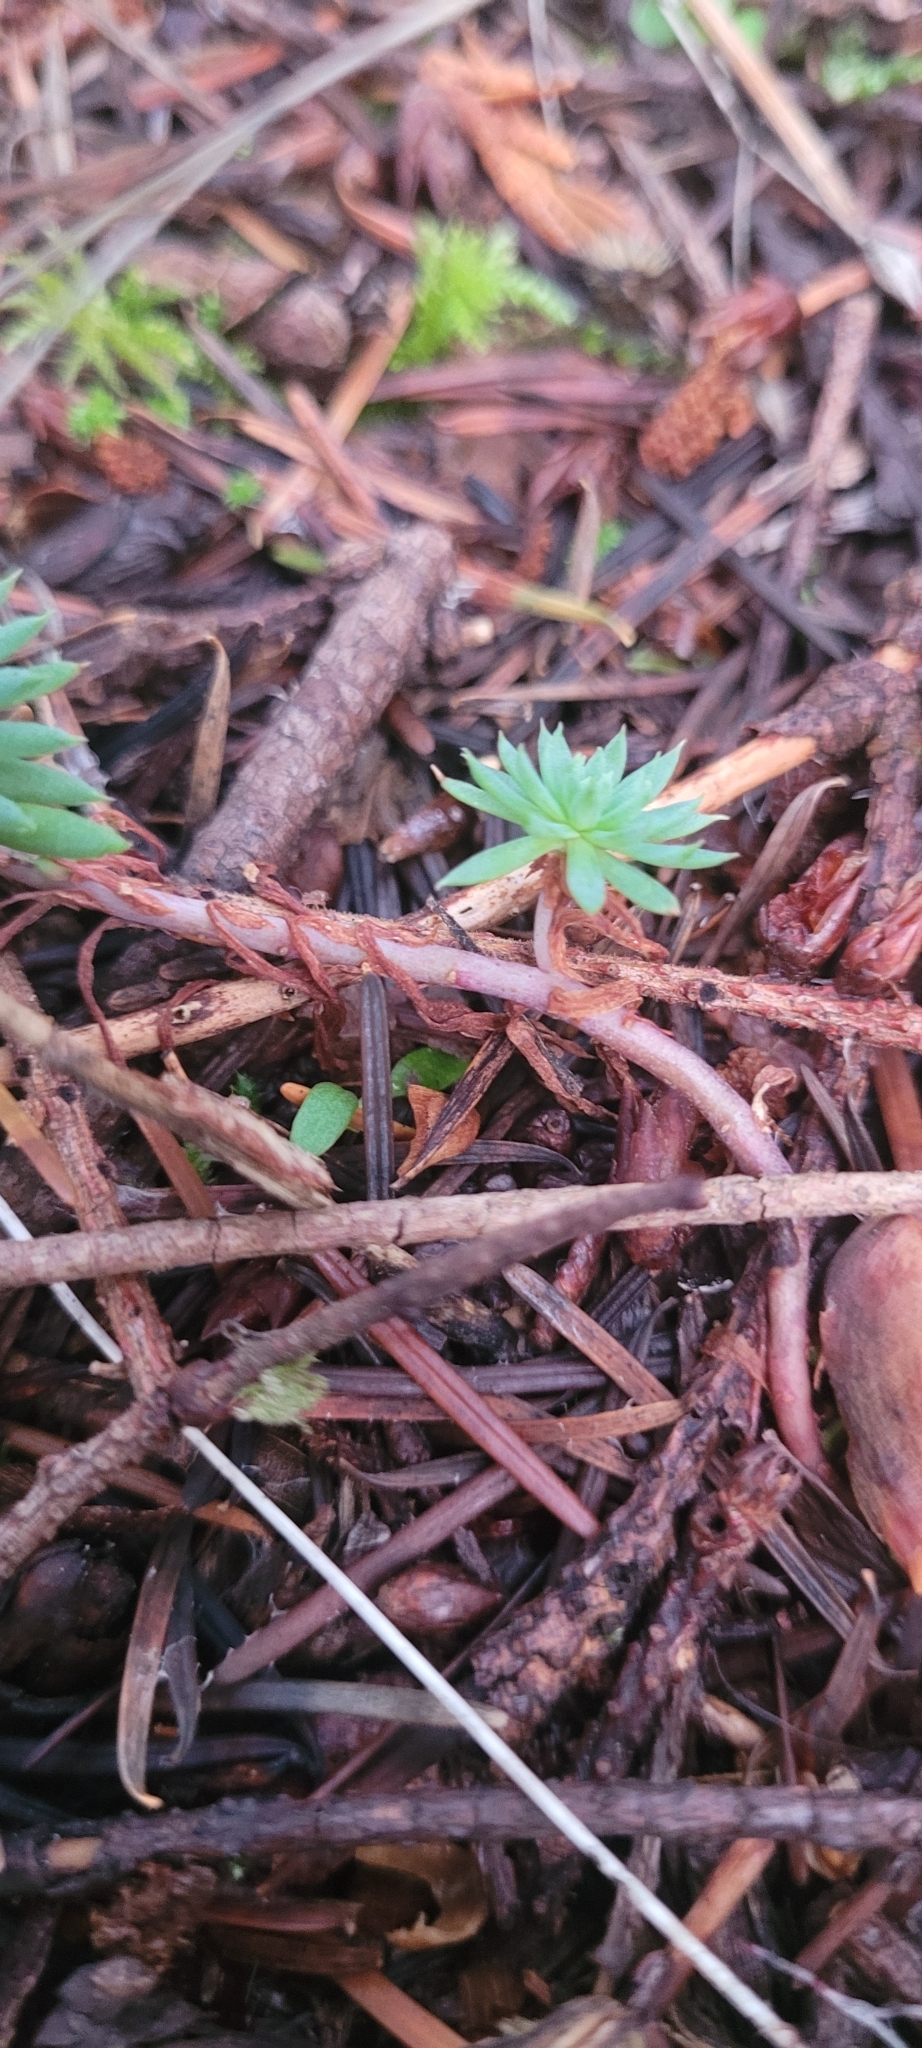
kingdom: Plantae
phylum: Tracheophyta
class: Magnoliopsida
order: Saxifragales
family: Crassulaceae
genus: Petrosedum
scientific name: Petrosedum forsterianum
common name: Forster's stonecrop
